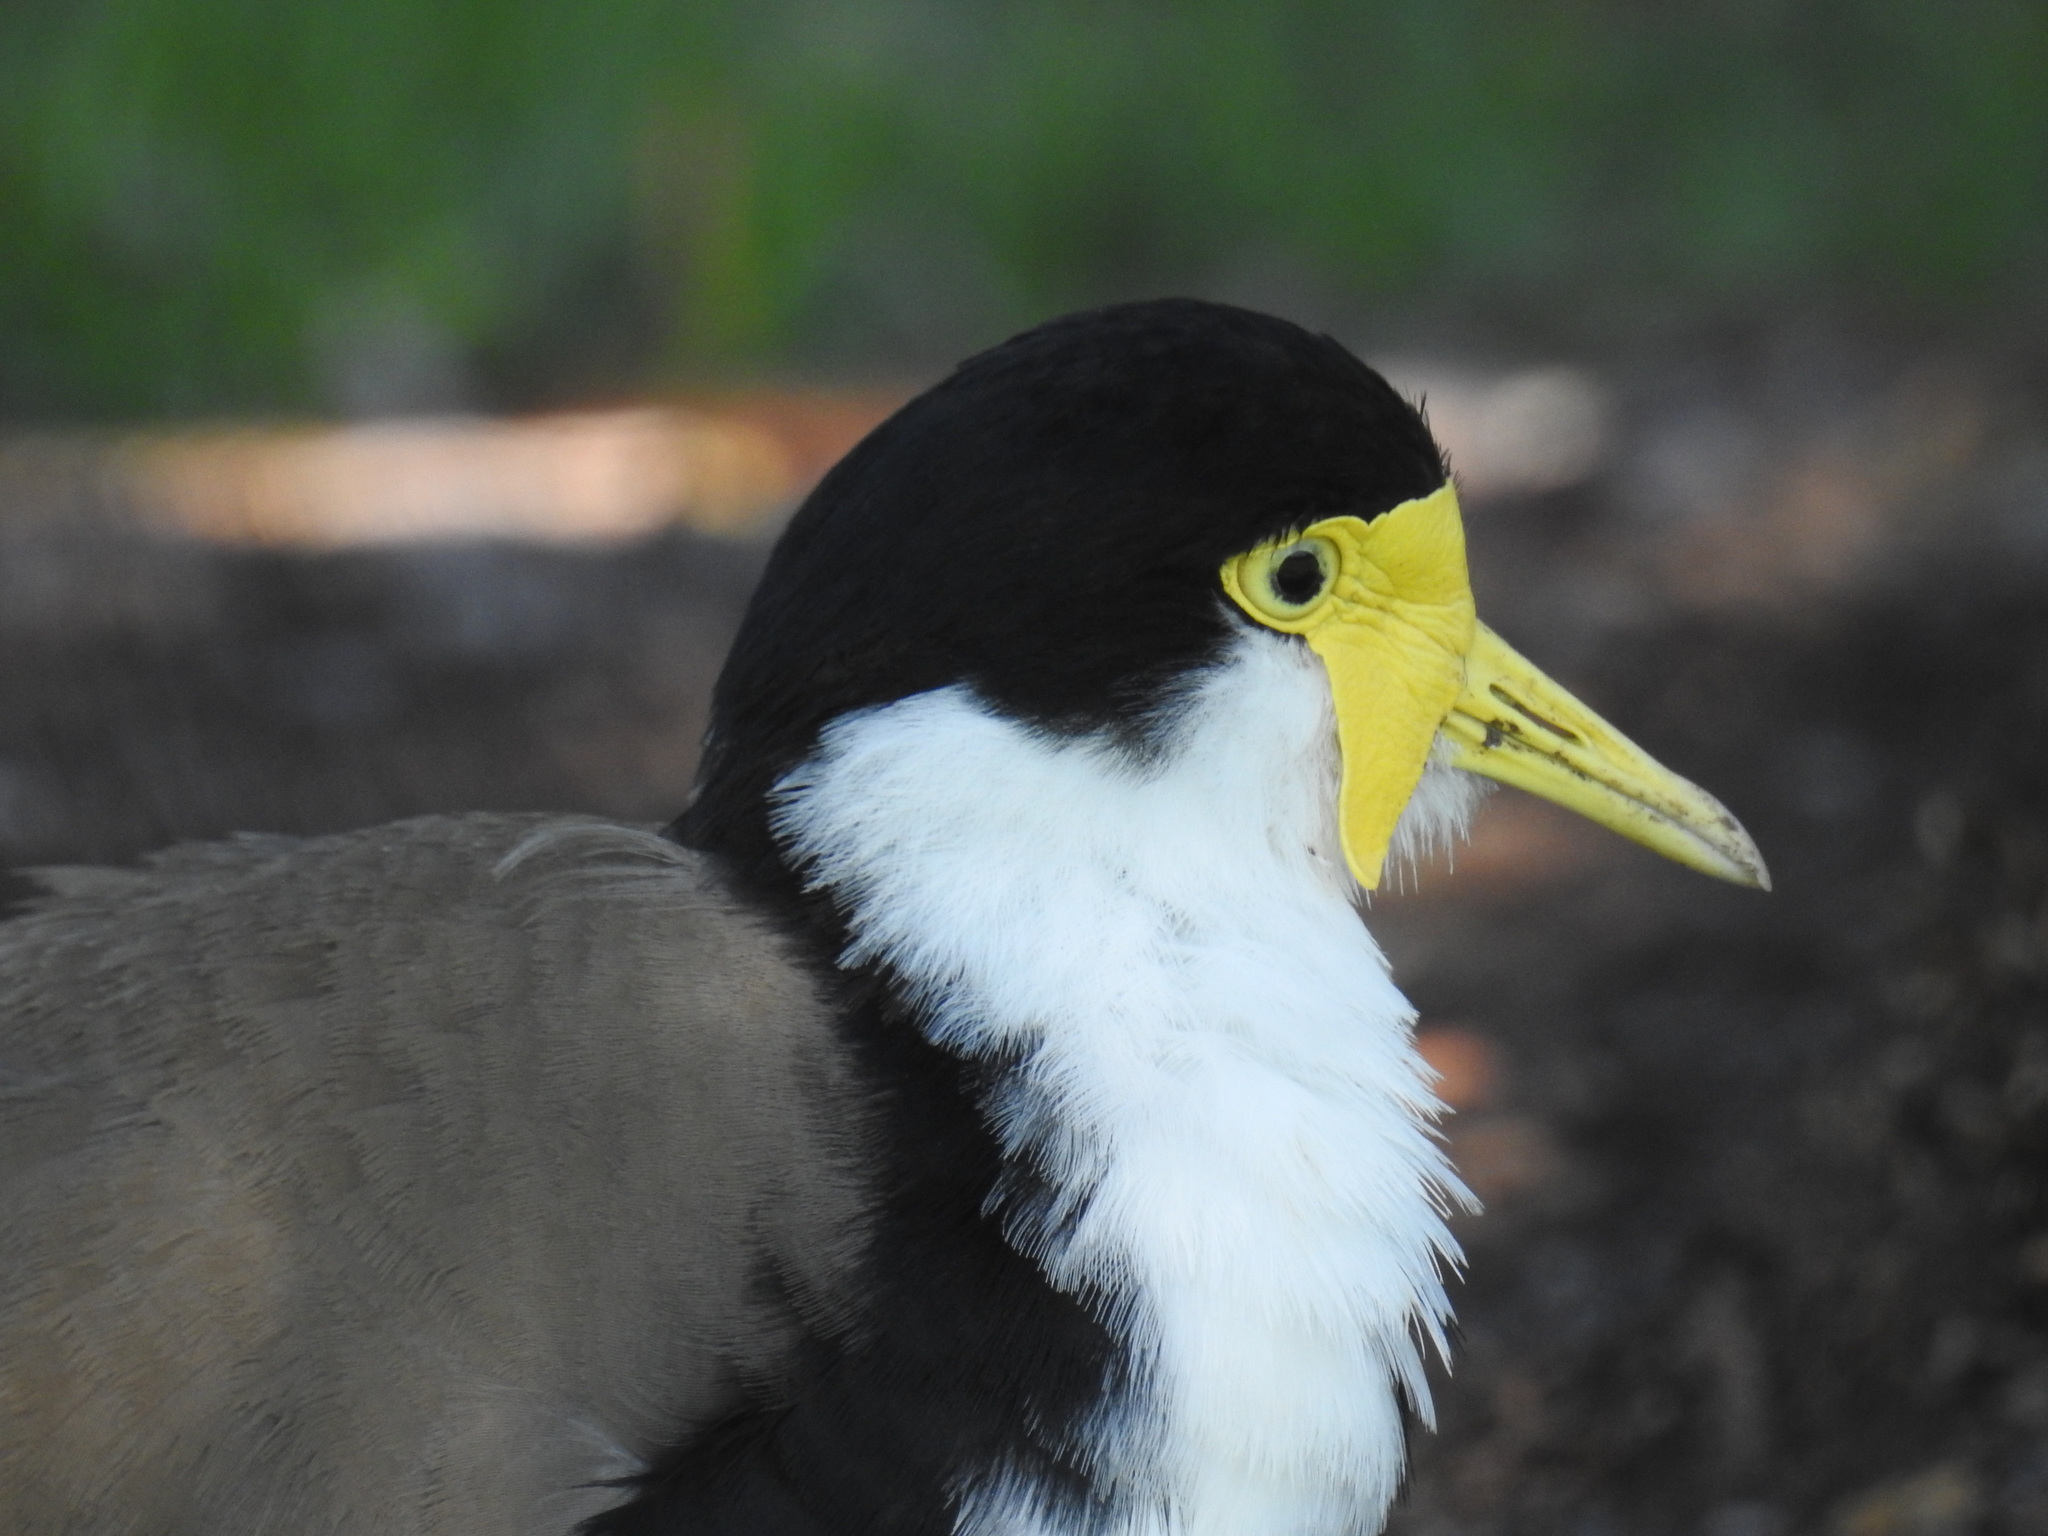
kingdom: Animalia
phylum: Chordata
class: Aves
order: Charadriiformes
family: Charadriidae
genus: Vanellus
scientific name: Vanellus miles
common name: Masked lapwing
